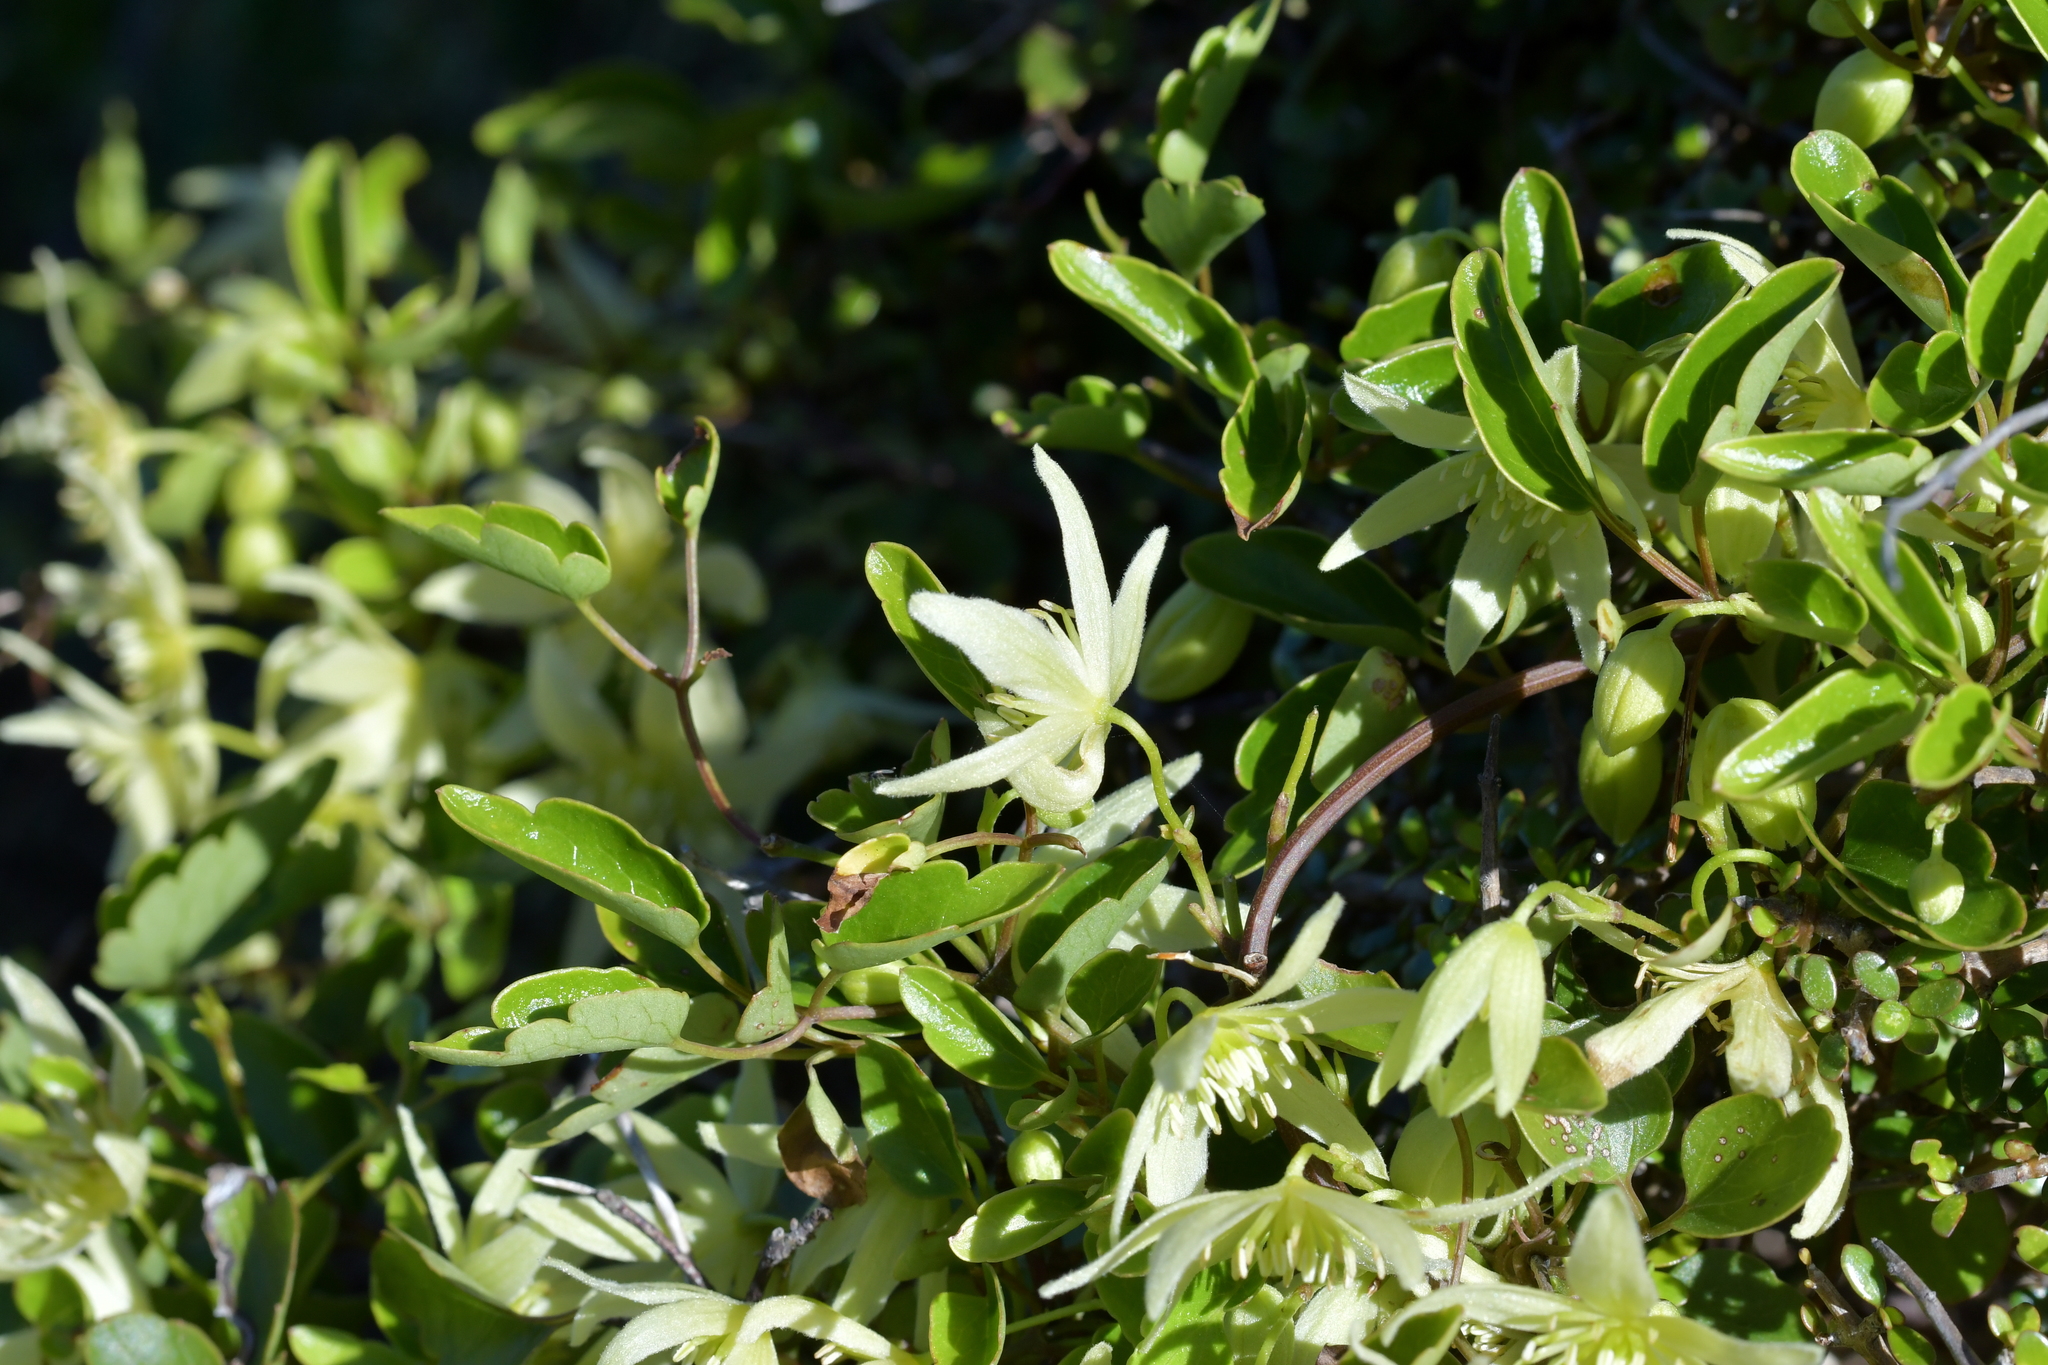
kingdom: Plantae
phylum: Tracheophyta
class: Magnoliopsida
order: Ranunculales
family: Ranunculaceae
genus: Clematis
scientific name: Clematis forsteri
